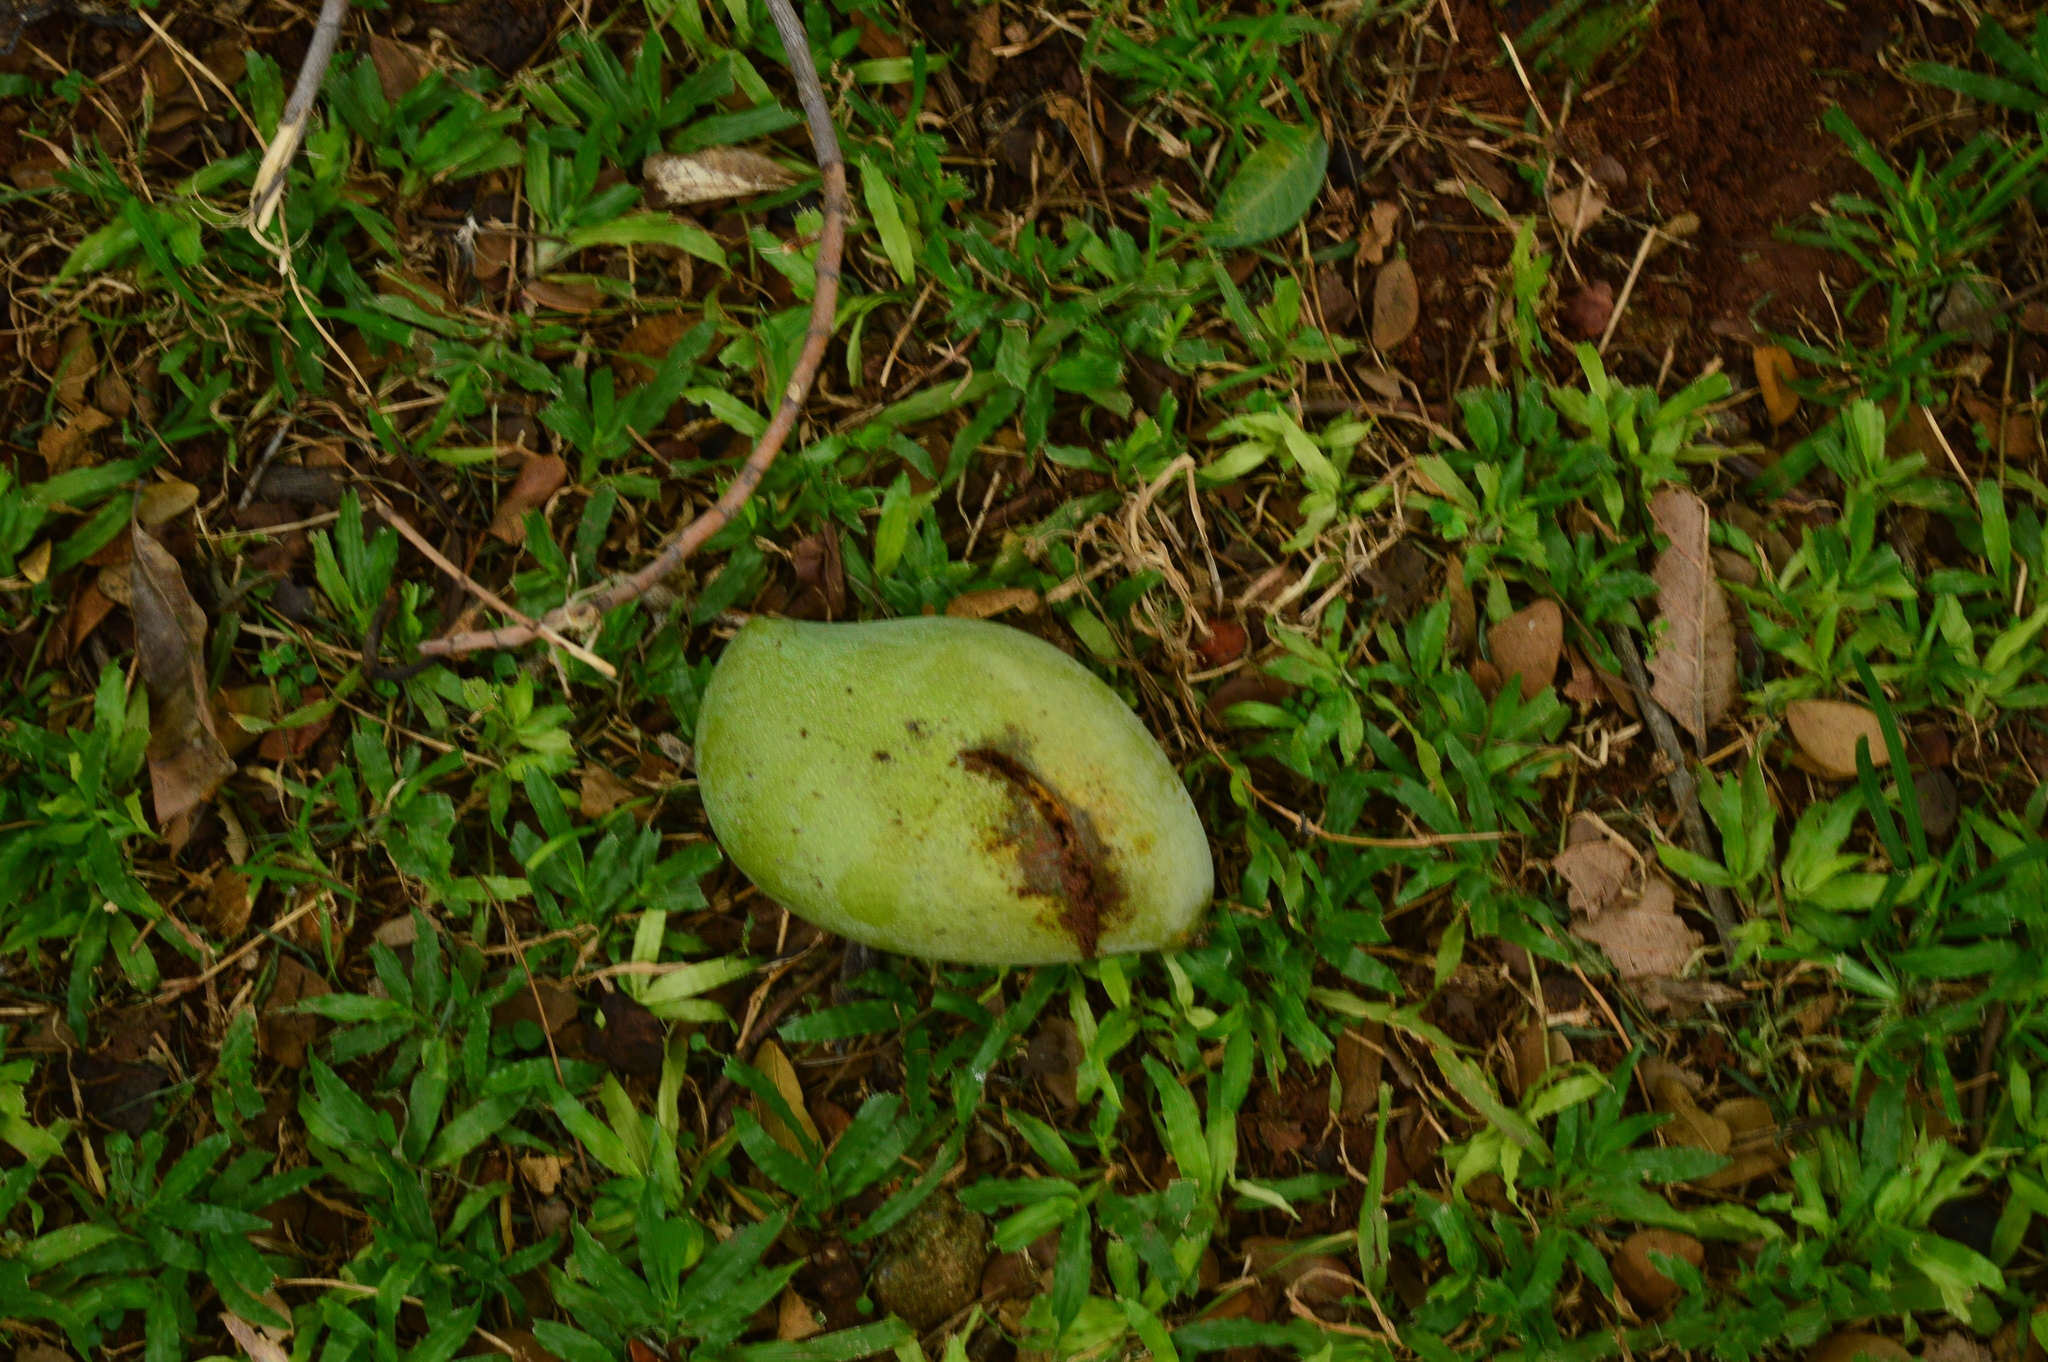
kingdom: Plantae
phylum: Tracheophyta
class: Magnoliopsida
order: Sapindales
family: Anacardiaceae
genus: Mangifera
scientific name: Mangifera indica
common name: Mango
